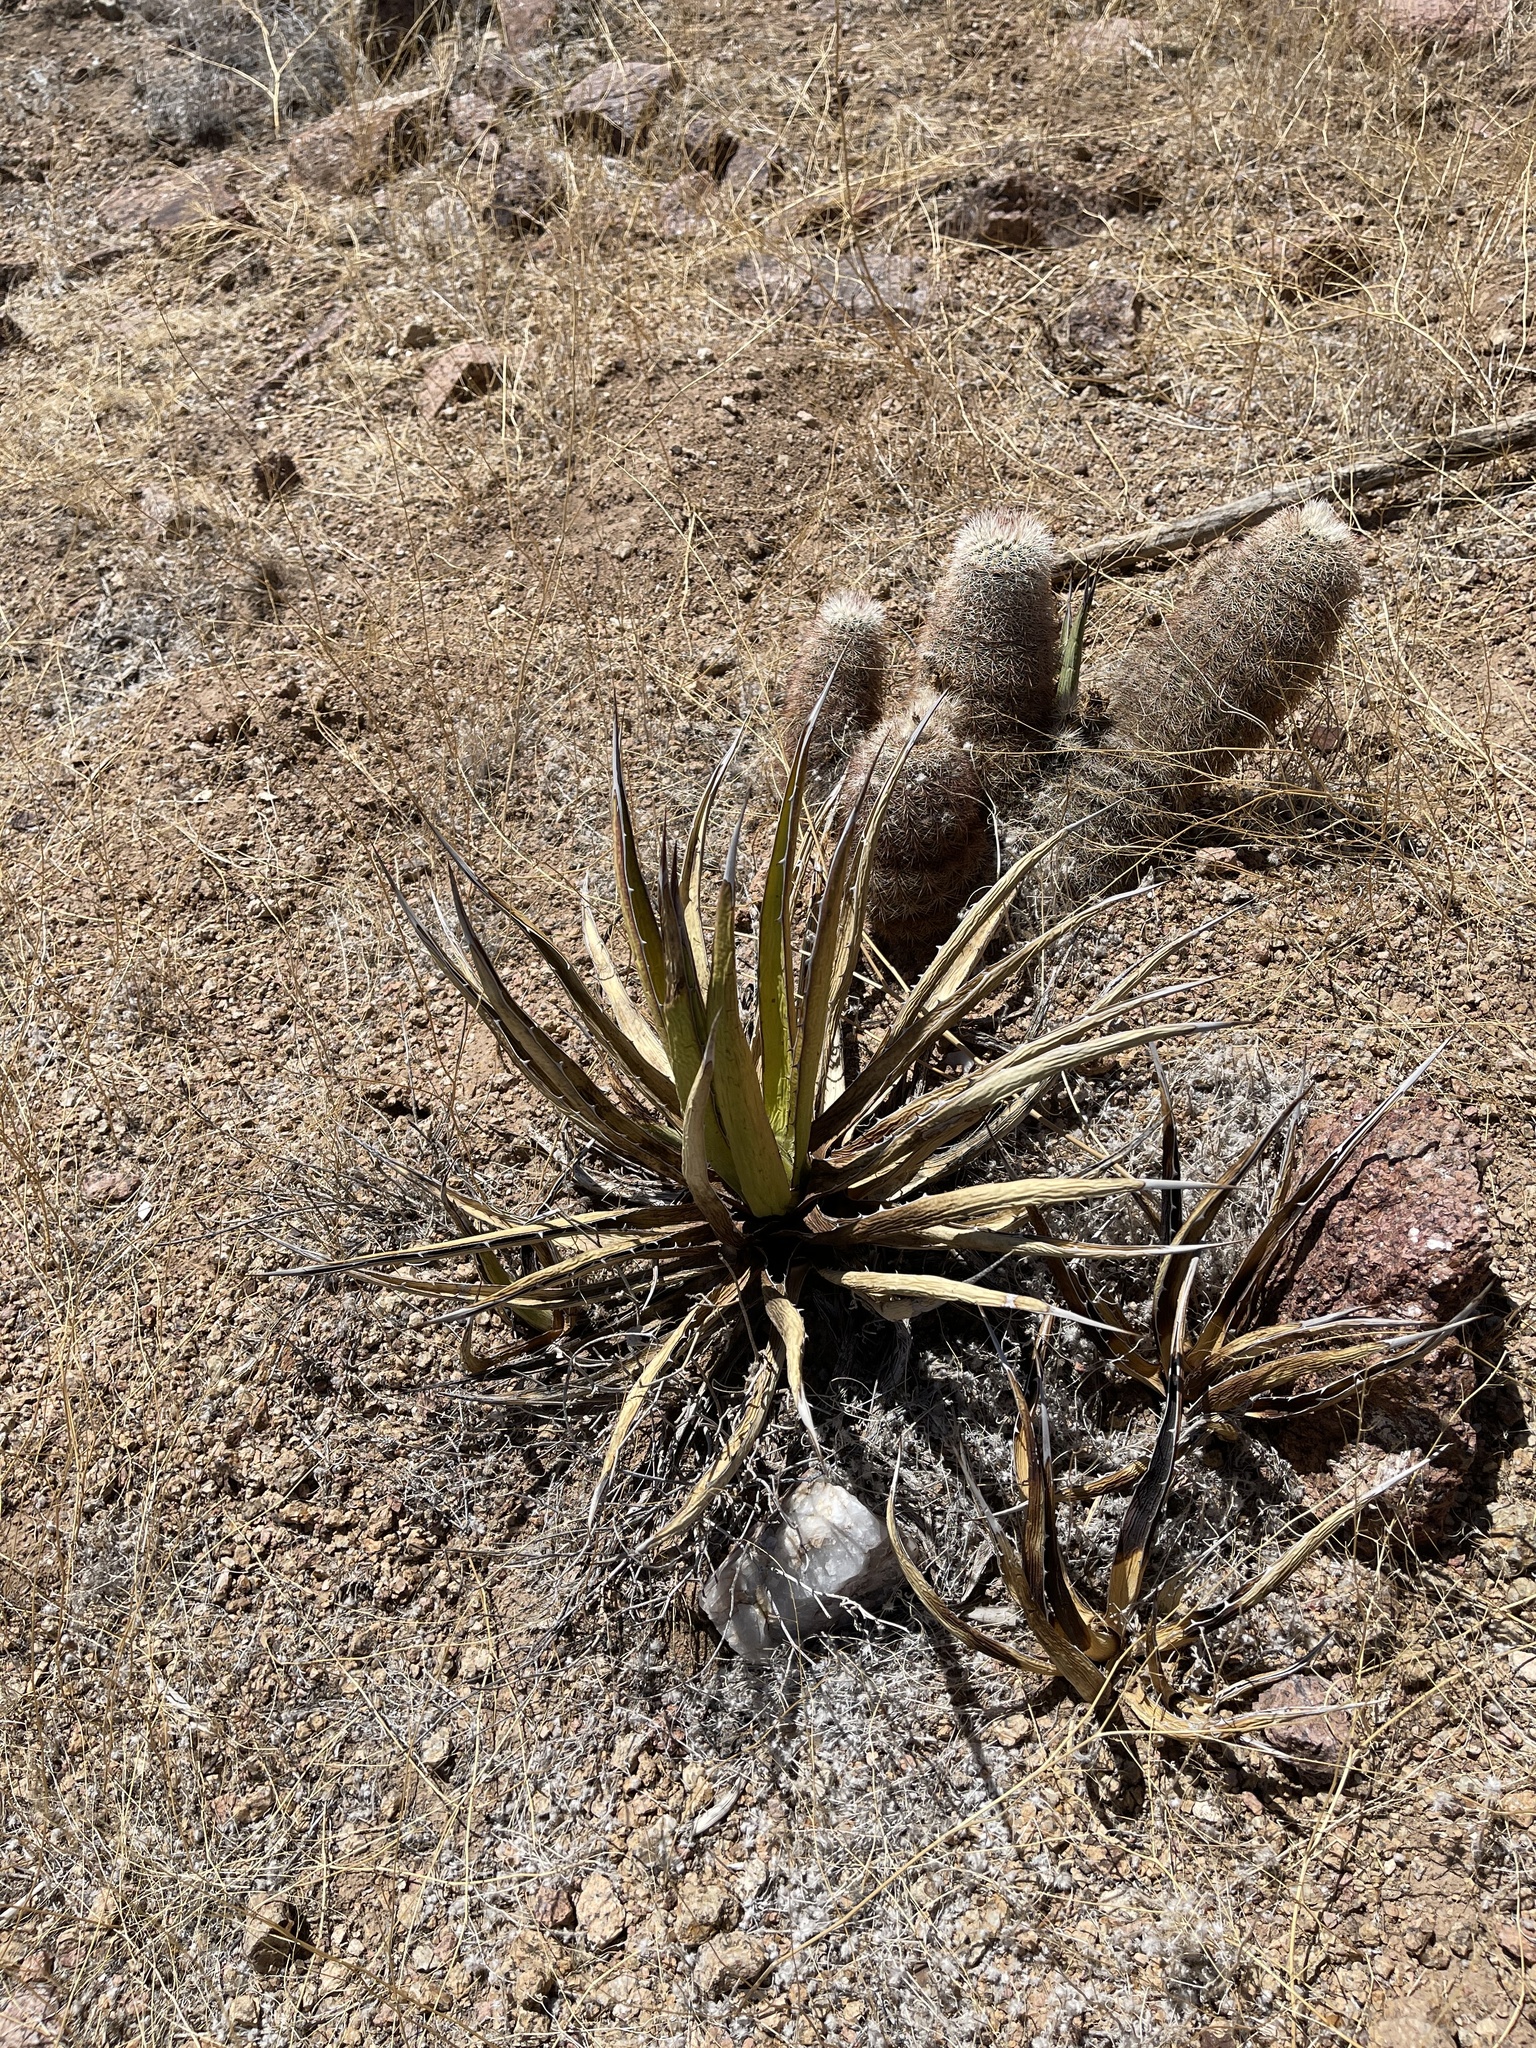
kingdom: Plantae
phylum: Tracheophyta
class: Liliopsida
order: Asparagales
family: Asparagaceae
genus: Agave
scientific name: Agave lechuguilla
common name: Lecheguilla agave
